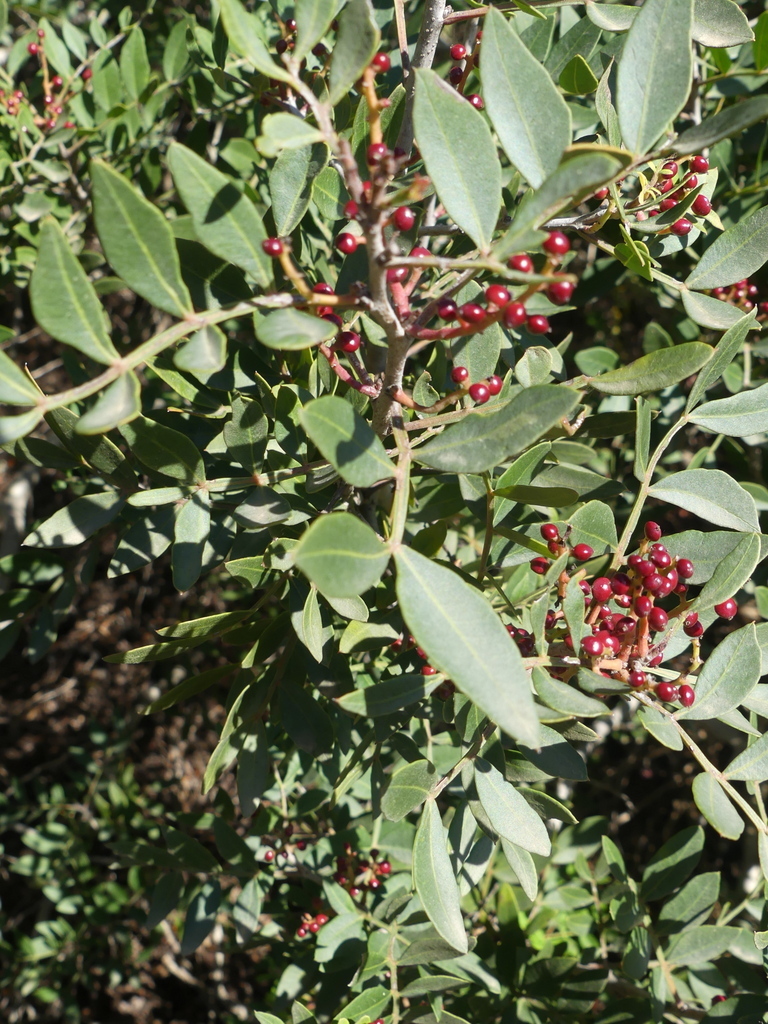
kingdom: Plantae
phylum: Tracheophyta
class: Magnoliopsida
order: Sapindales
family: Anacardiaceae
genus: Pistacia
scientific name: Pistacia lentiscus
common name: Lentisk
